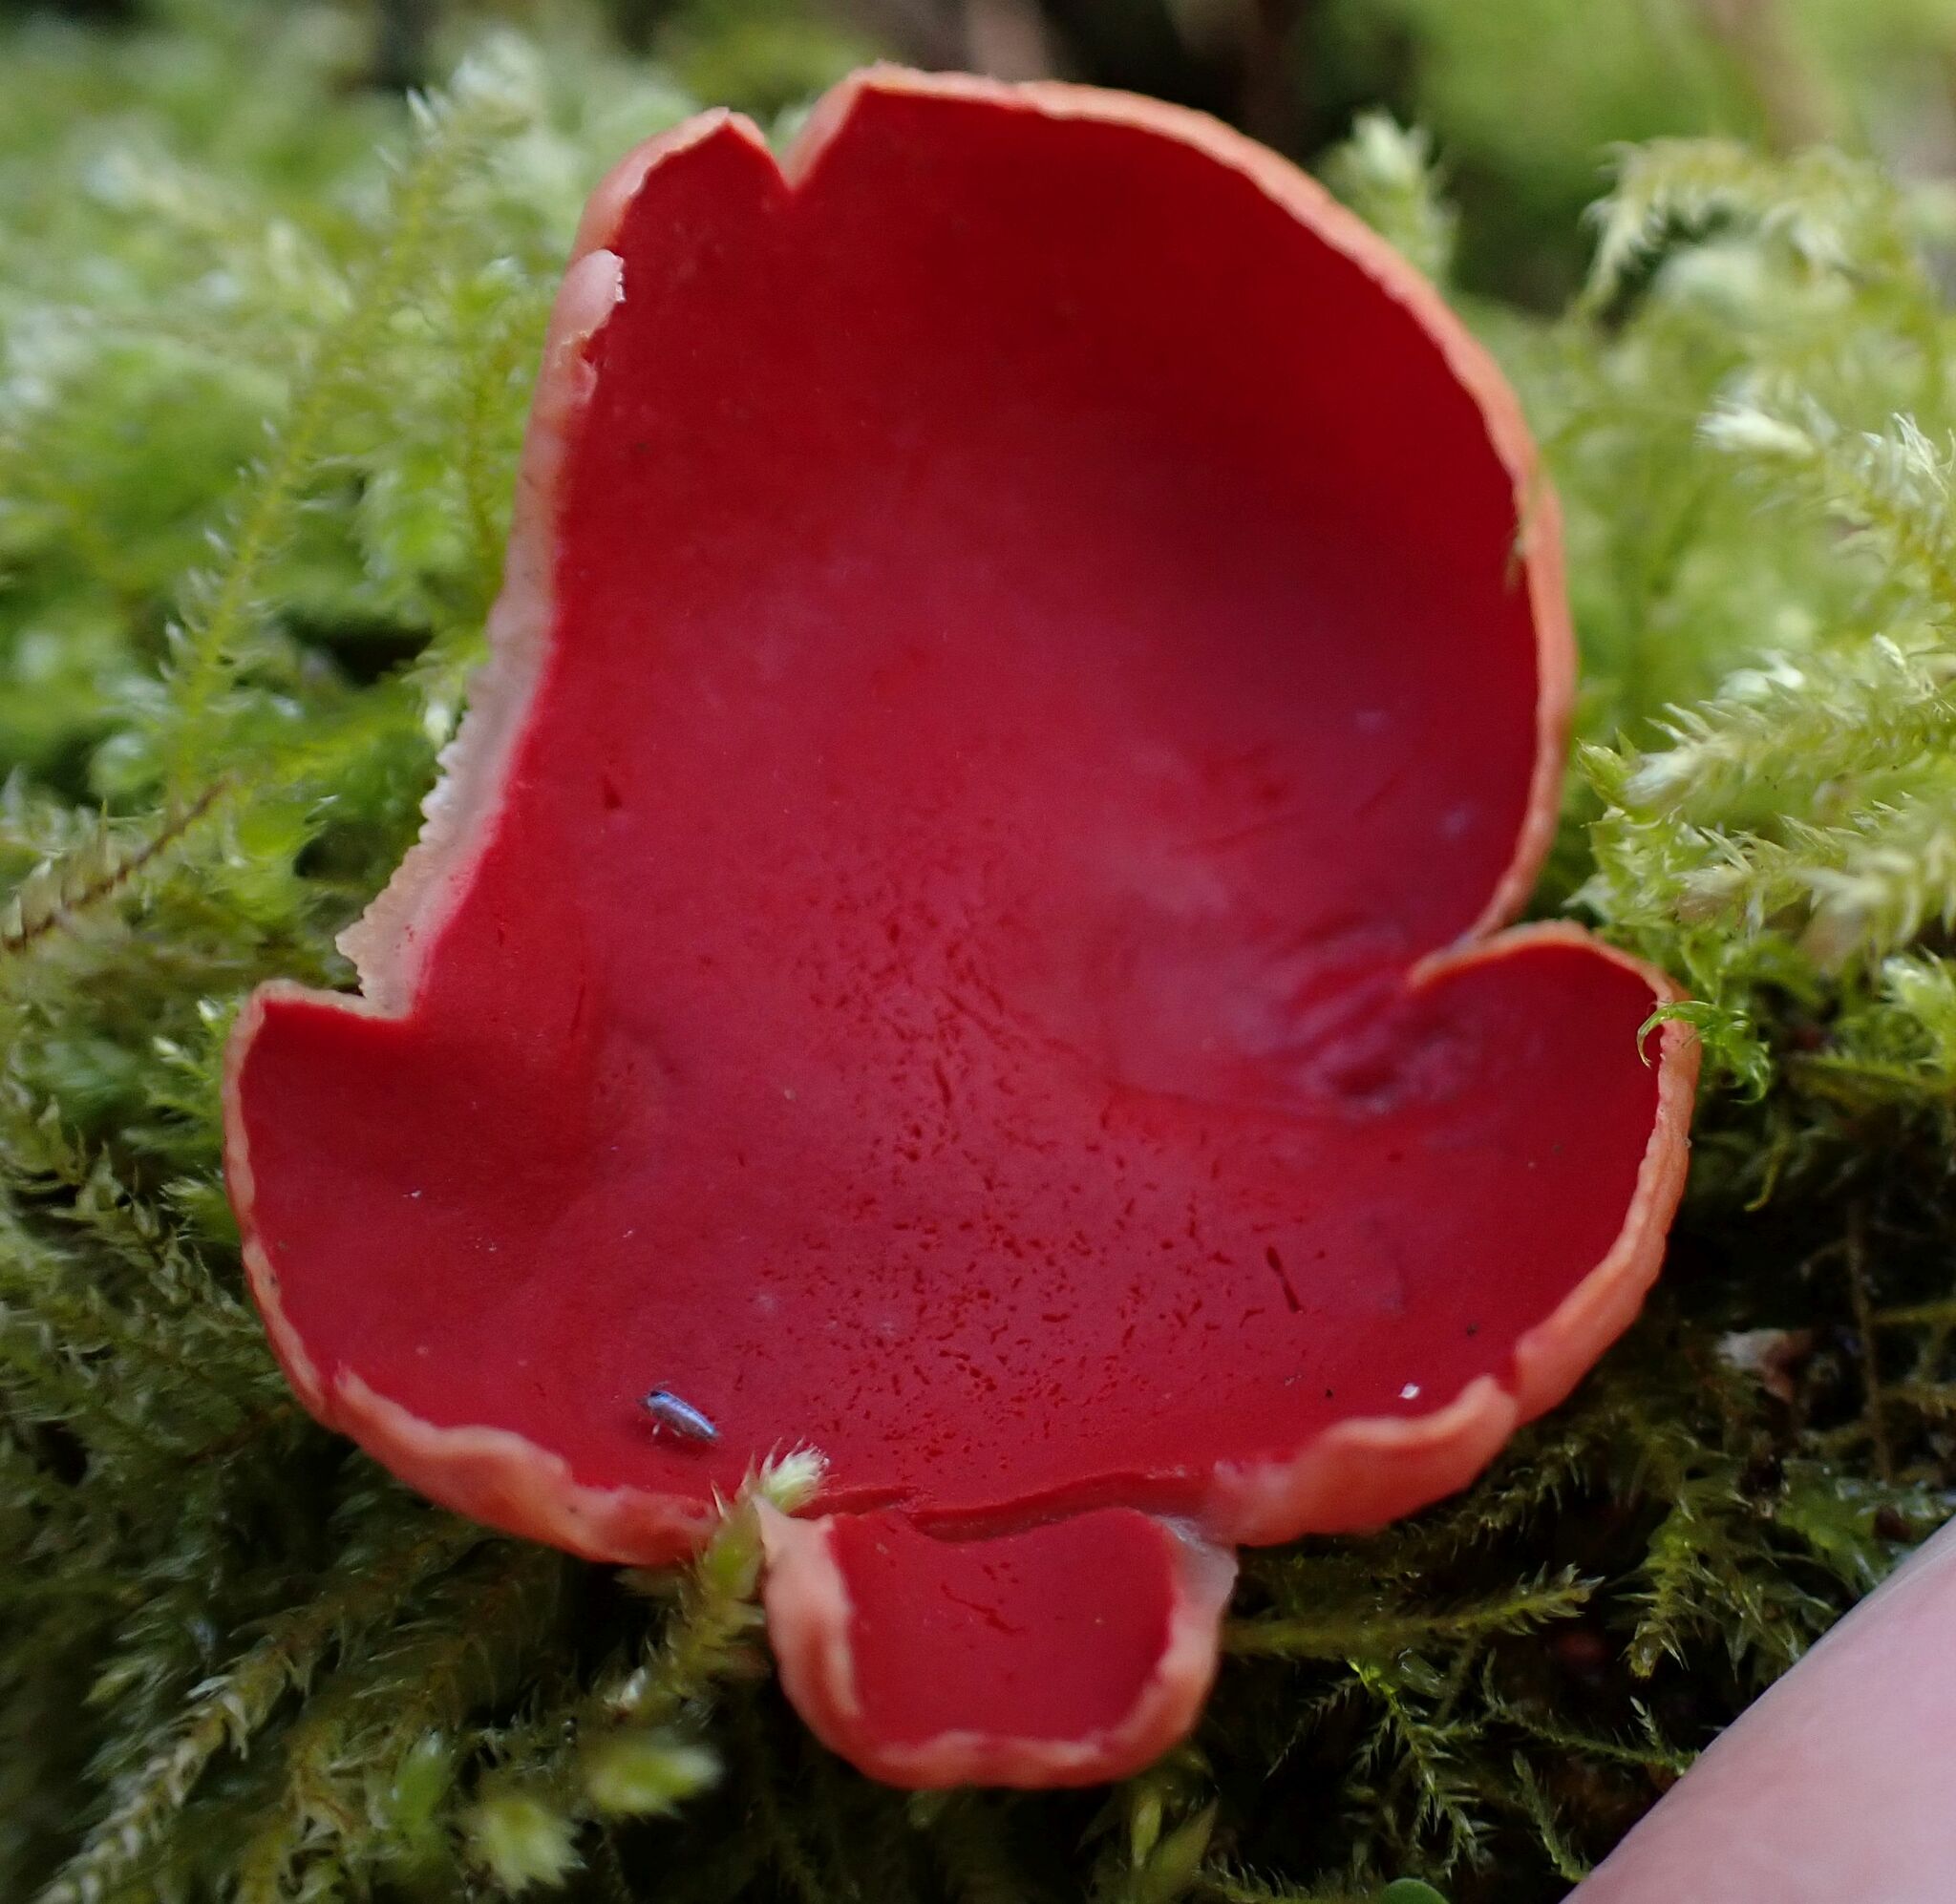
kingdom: Fungi
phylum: Ascomycota
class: Pezizomycetes
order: Pezizales
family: Sarcoscyphaceae
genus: Sarcoscypha
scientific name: Sarcoscypha
